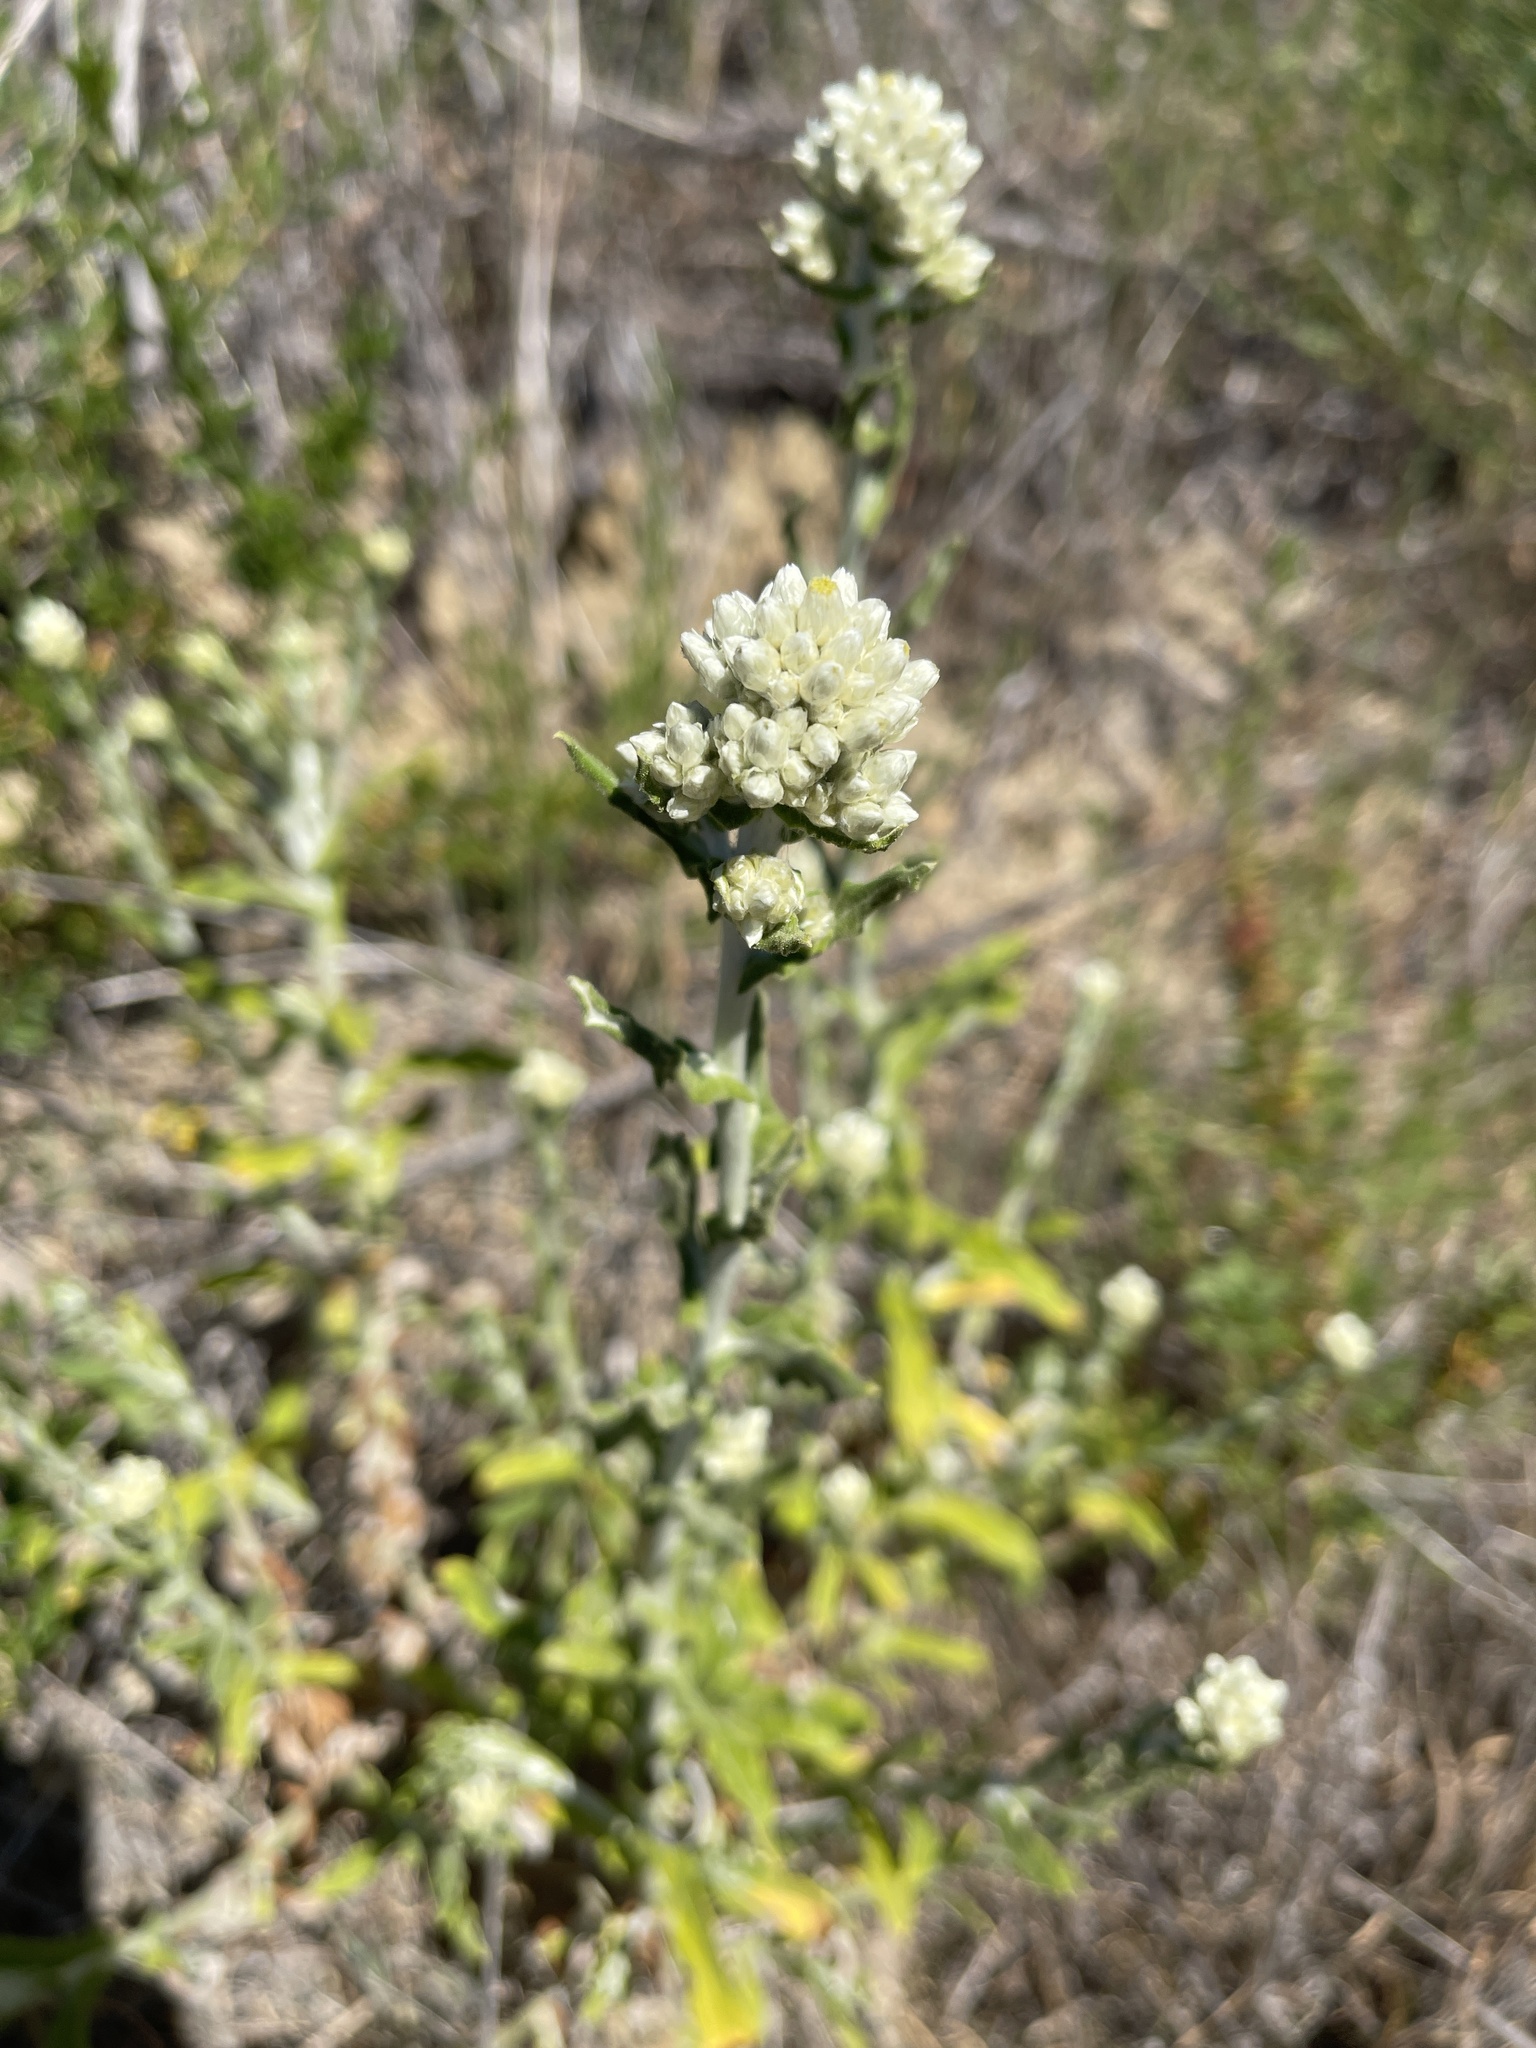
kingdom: Plantae
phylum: Tracheophyta
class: Magnoliopsida
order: Asterales
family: Asteraceae
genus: Pseudognaphalium
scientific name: Pseudognaphalium biolettii
